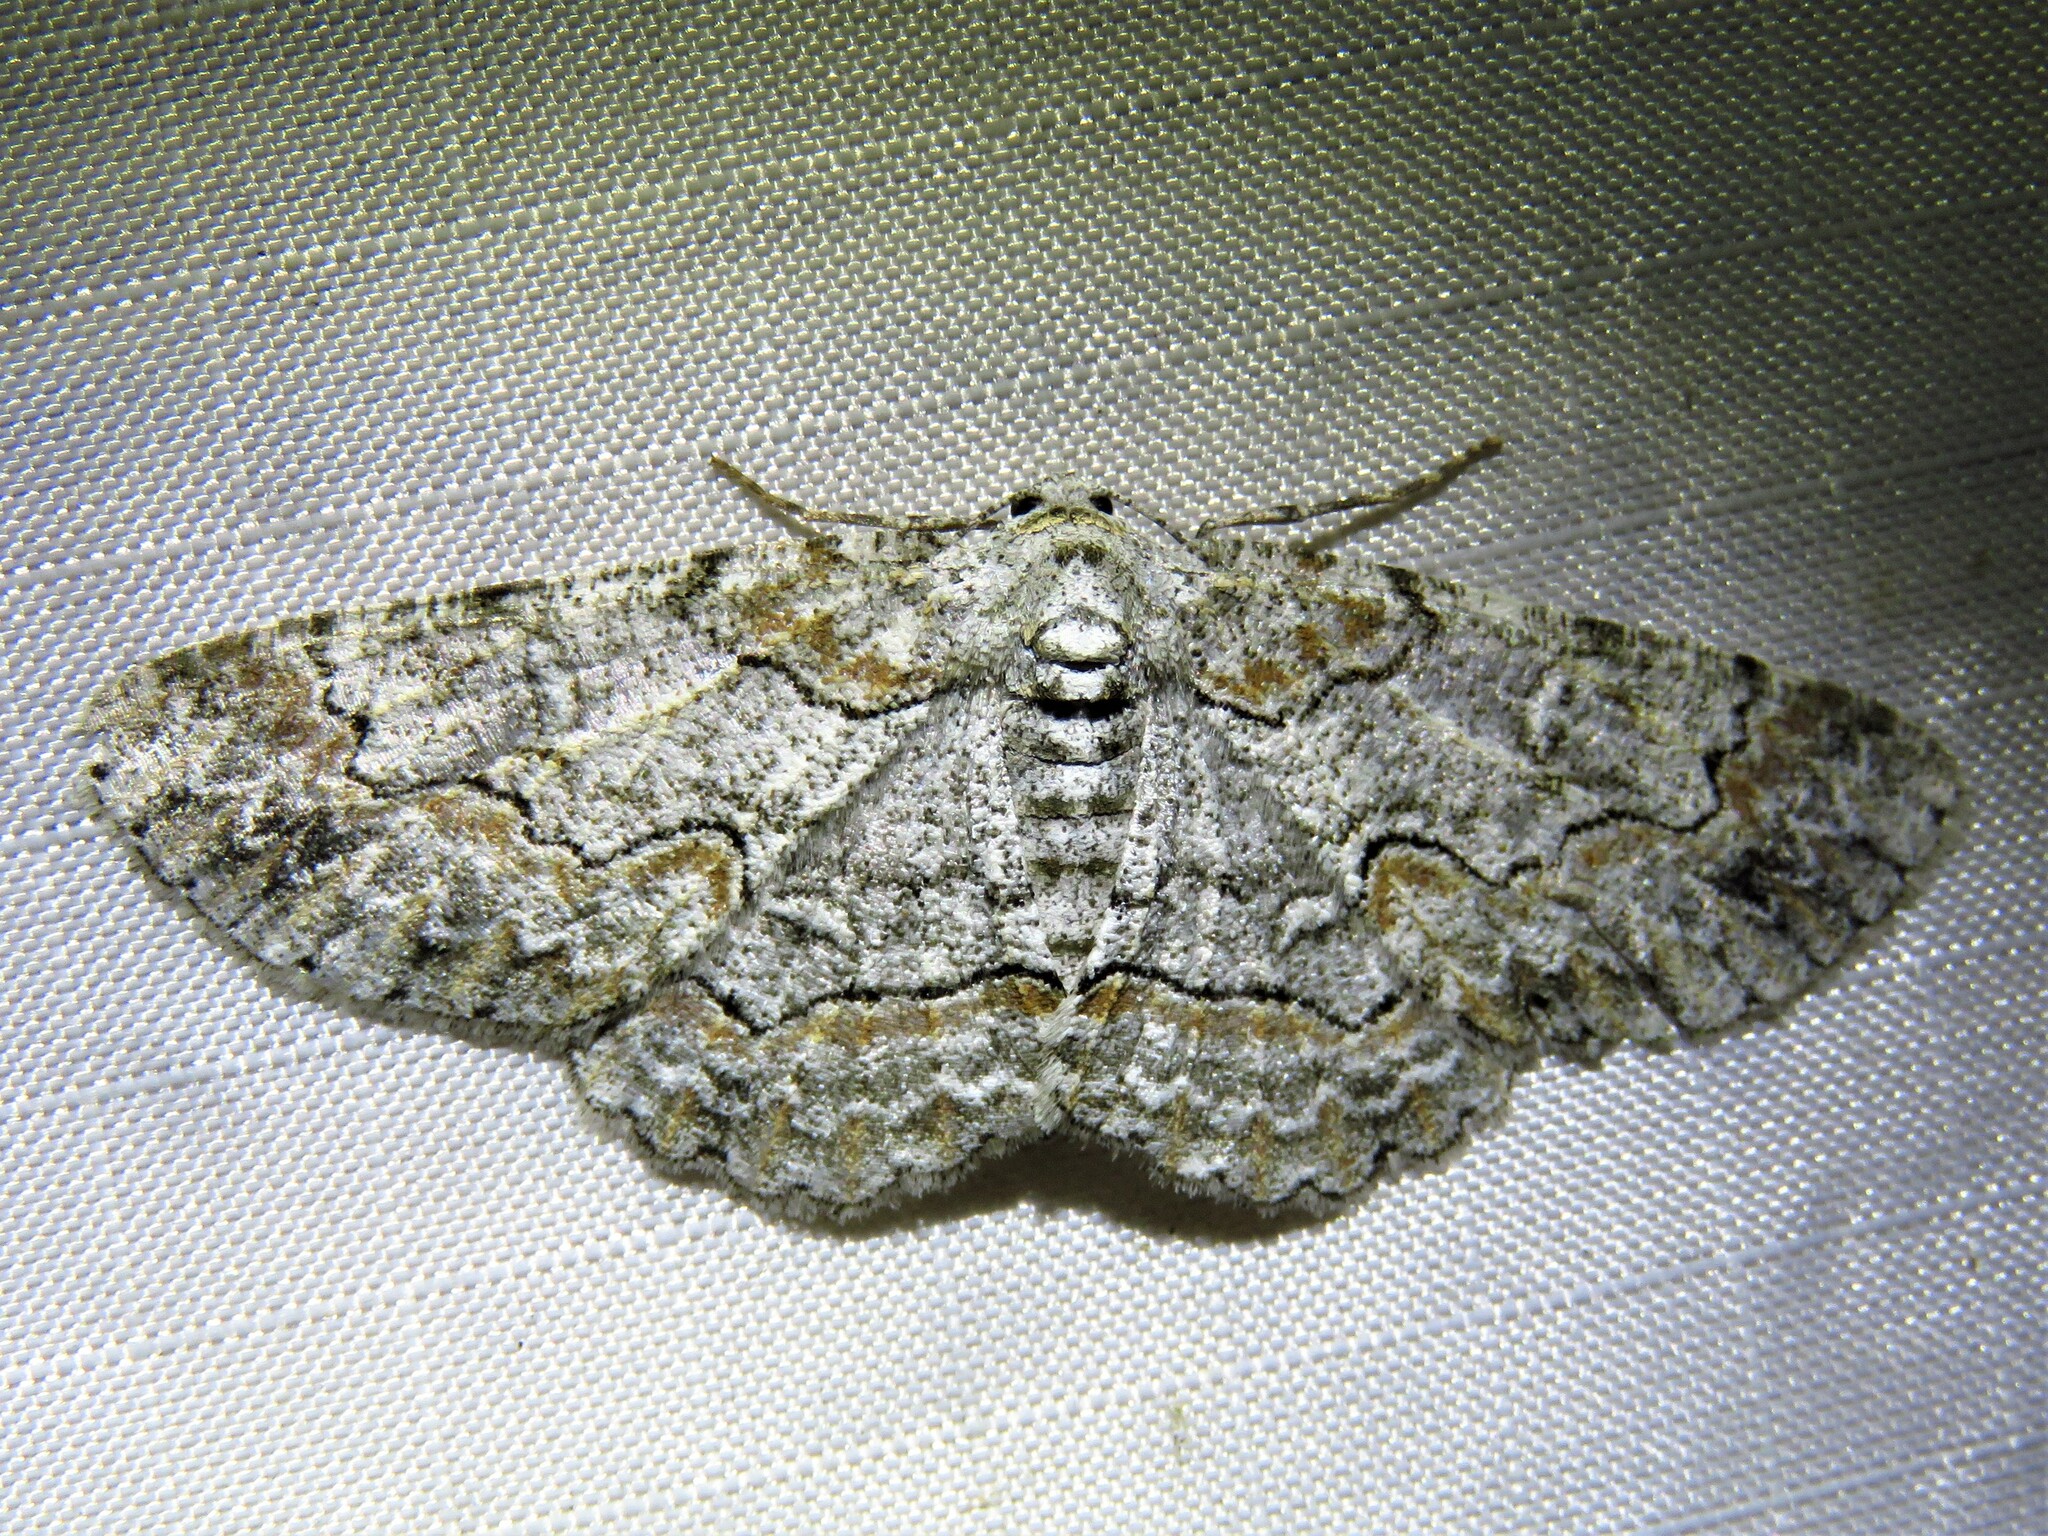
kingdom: Animalia
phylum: Arthropoda
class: Insecta
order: Lepidoptera
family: Geometridae
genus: Iridopsis
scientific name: Iridopsis defectaria
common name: Brown-shaded gray
